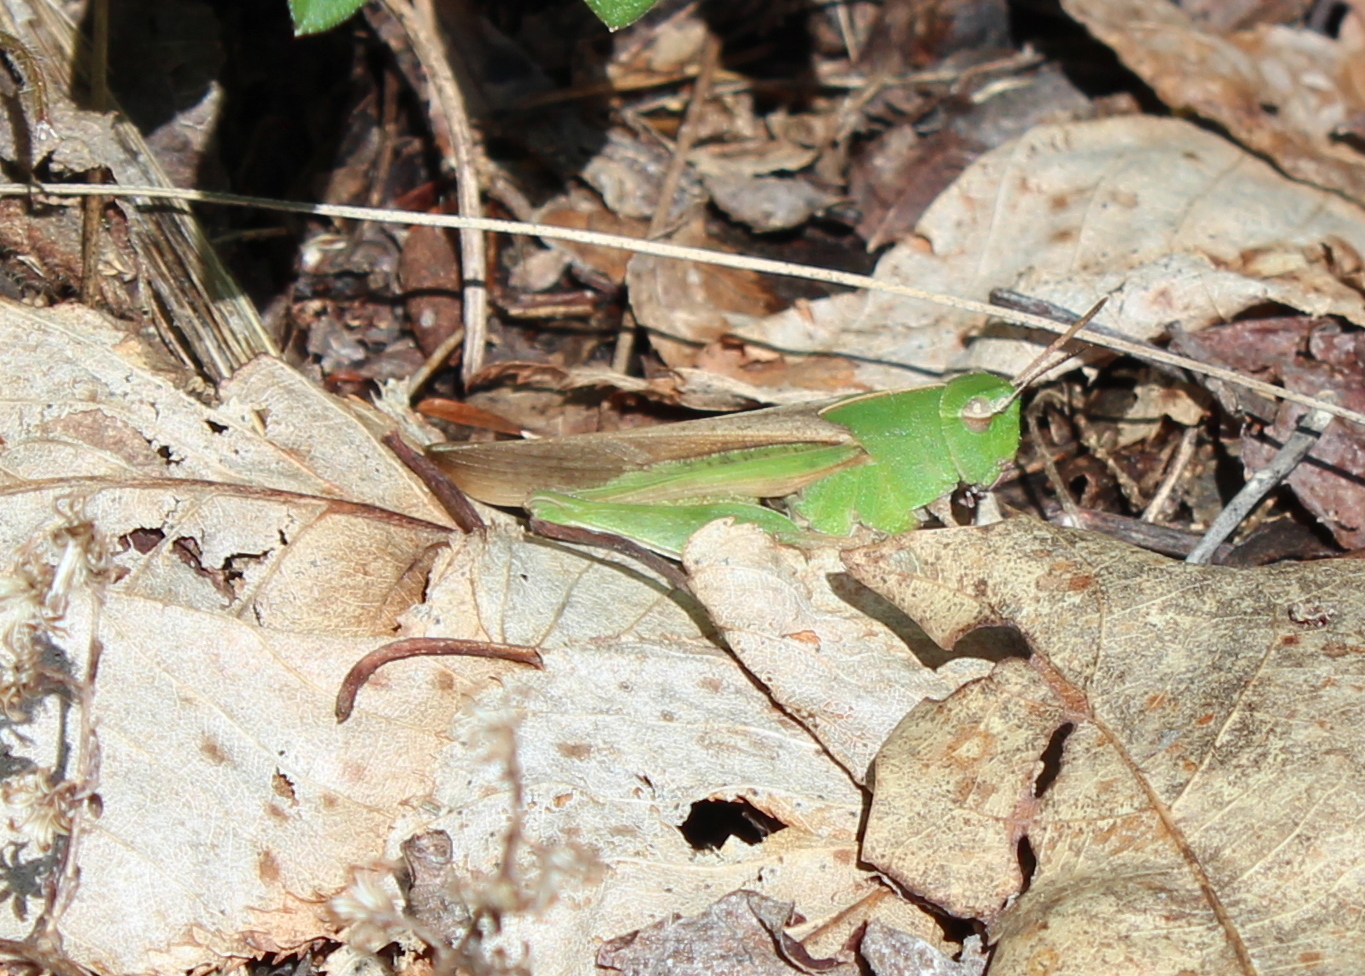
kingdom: Animalia
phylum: Arthropoda
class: Insecta
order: Orthoptera
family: Acrididae
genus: Chortophaga
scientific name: Chortophaga viridifasciata
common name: Green-striped grasshopper
